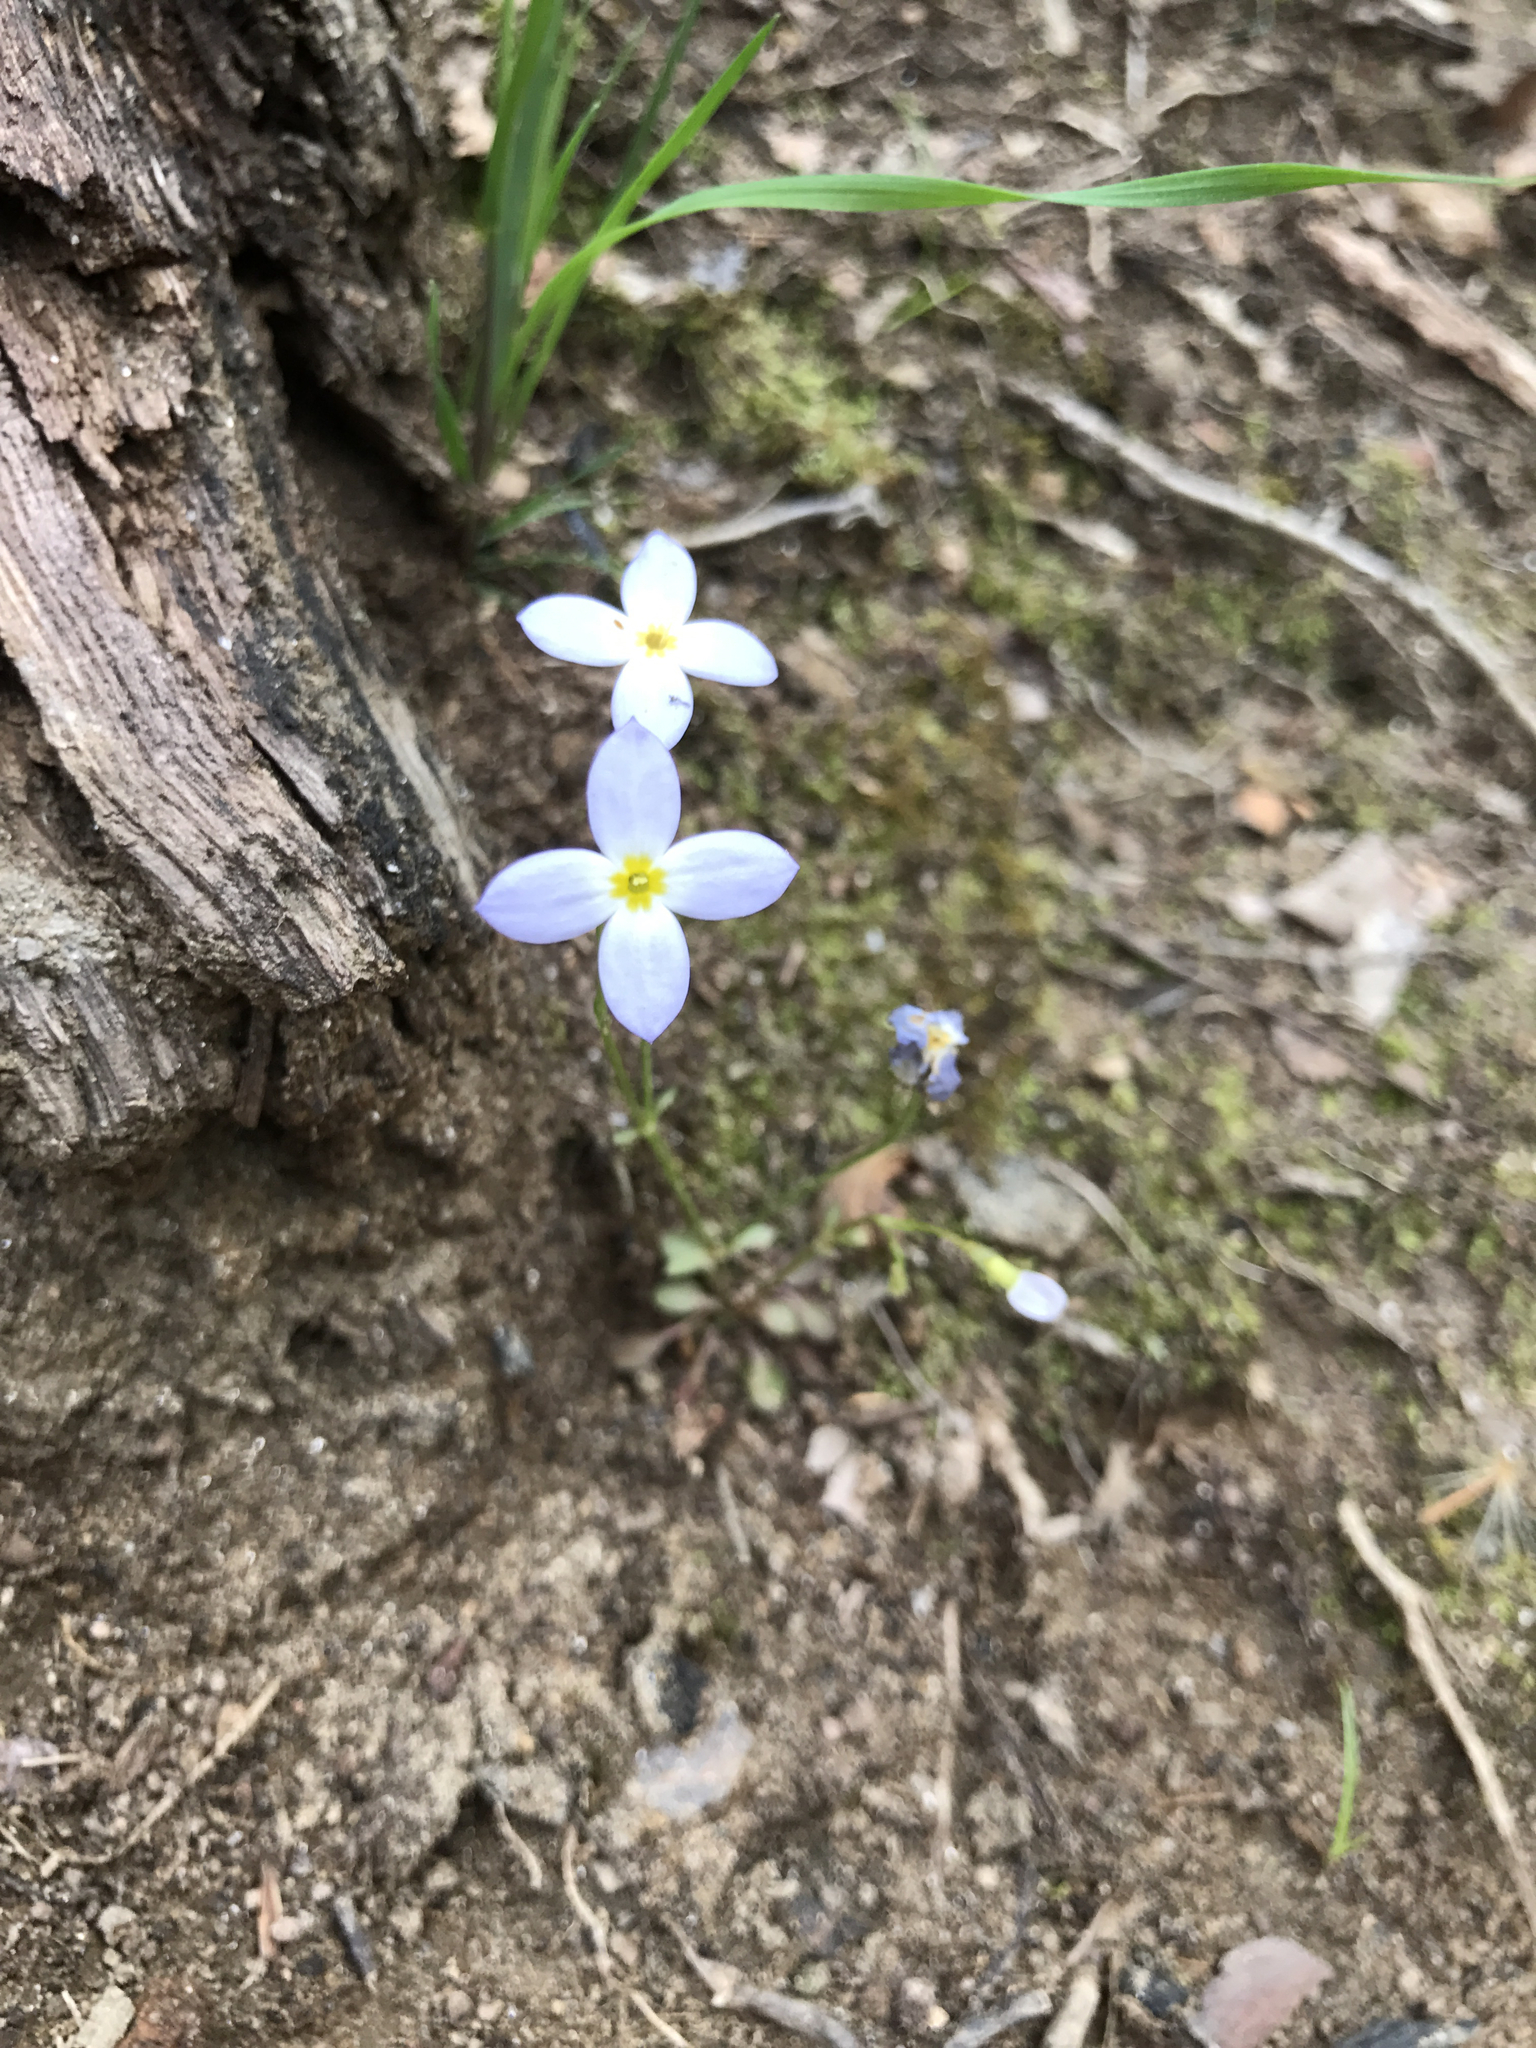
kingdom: Plantae
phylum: Tracheophyta
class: Magnoliopsida
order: Gentianales
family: Rubiaceae
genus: Houstonia
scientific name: Houstonia caerulea
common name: Bluets
